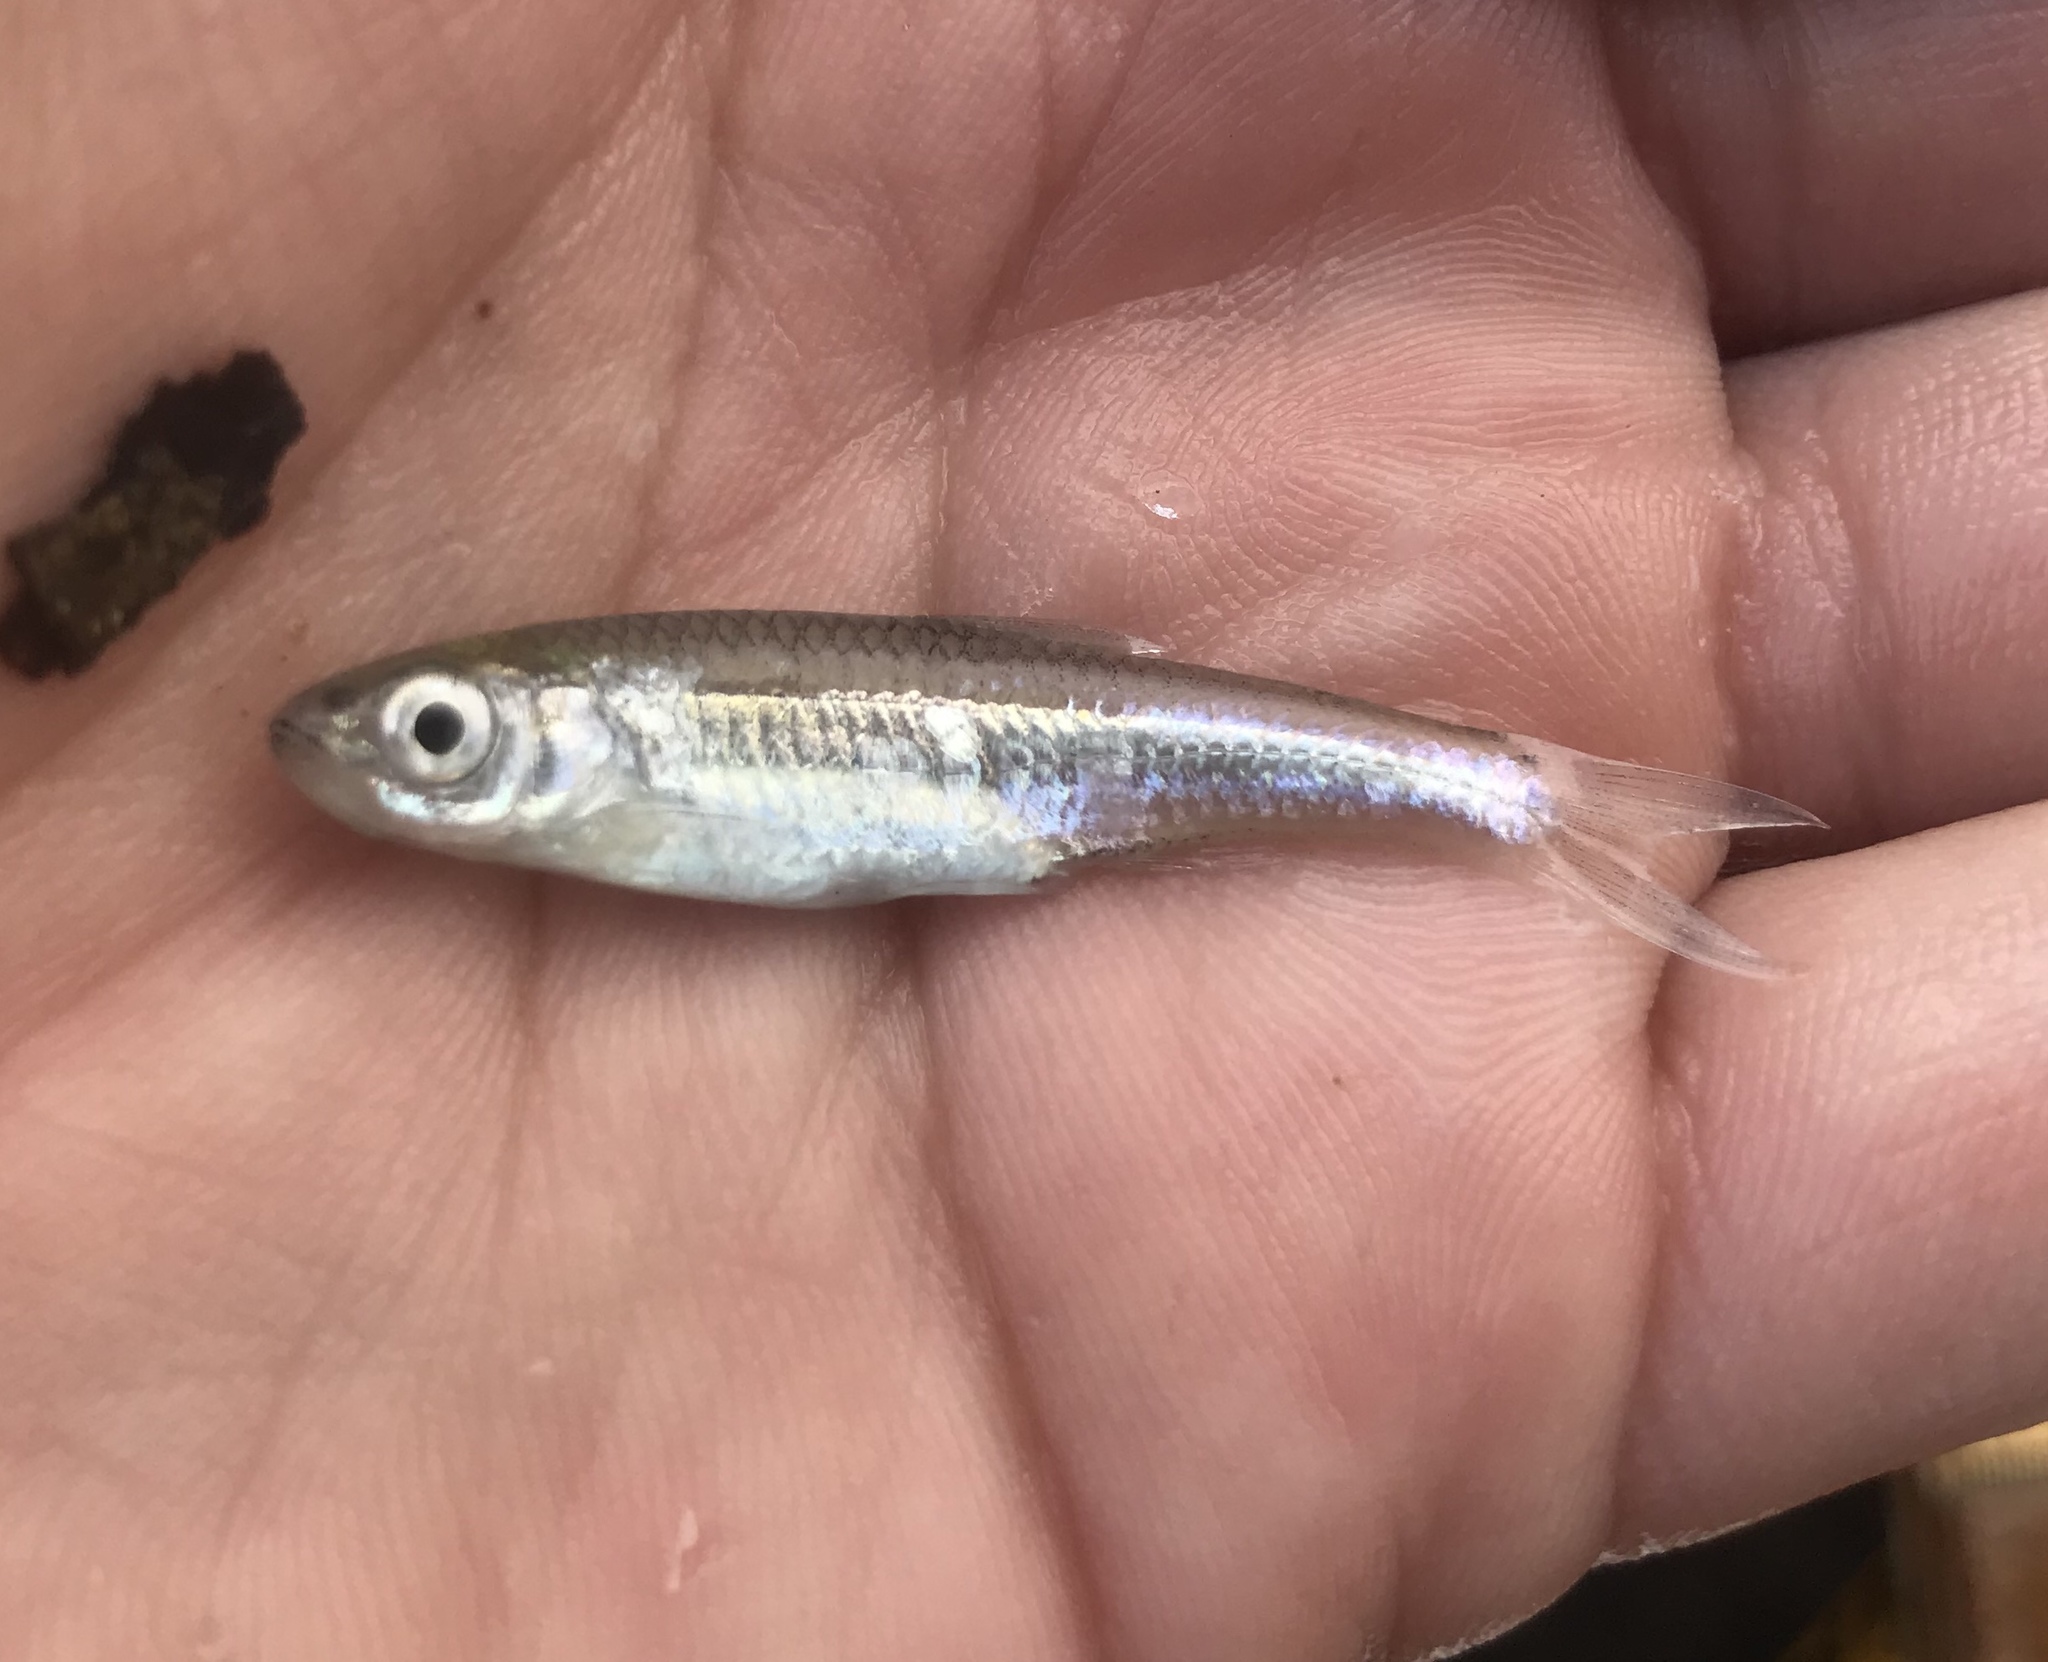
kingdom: Animalia
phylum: Chordata
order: Cypriniformes
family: Cyprinidae
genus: Notropis
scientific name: Notropis amabilis
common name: Texas shiner
